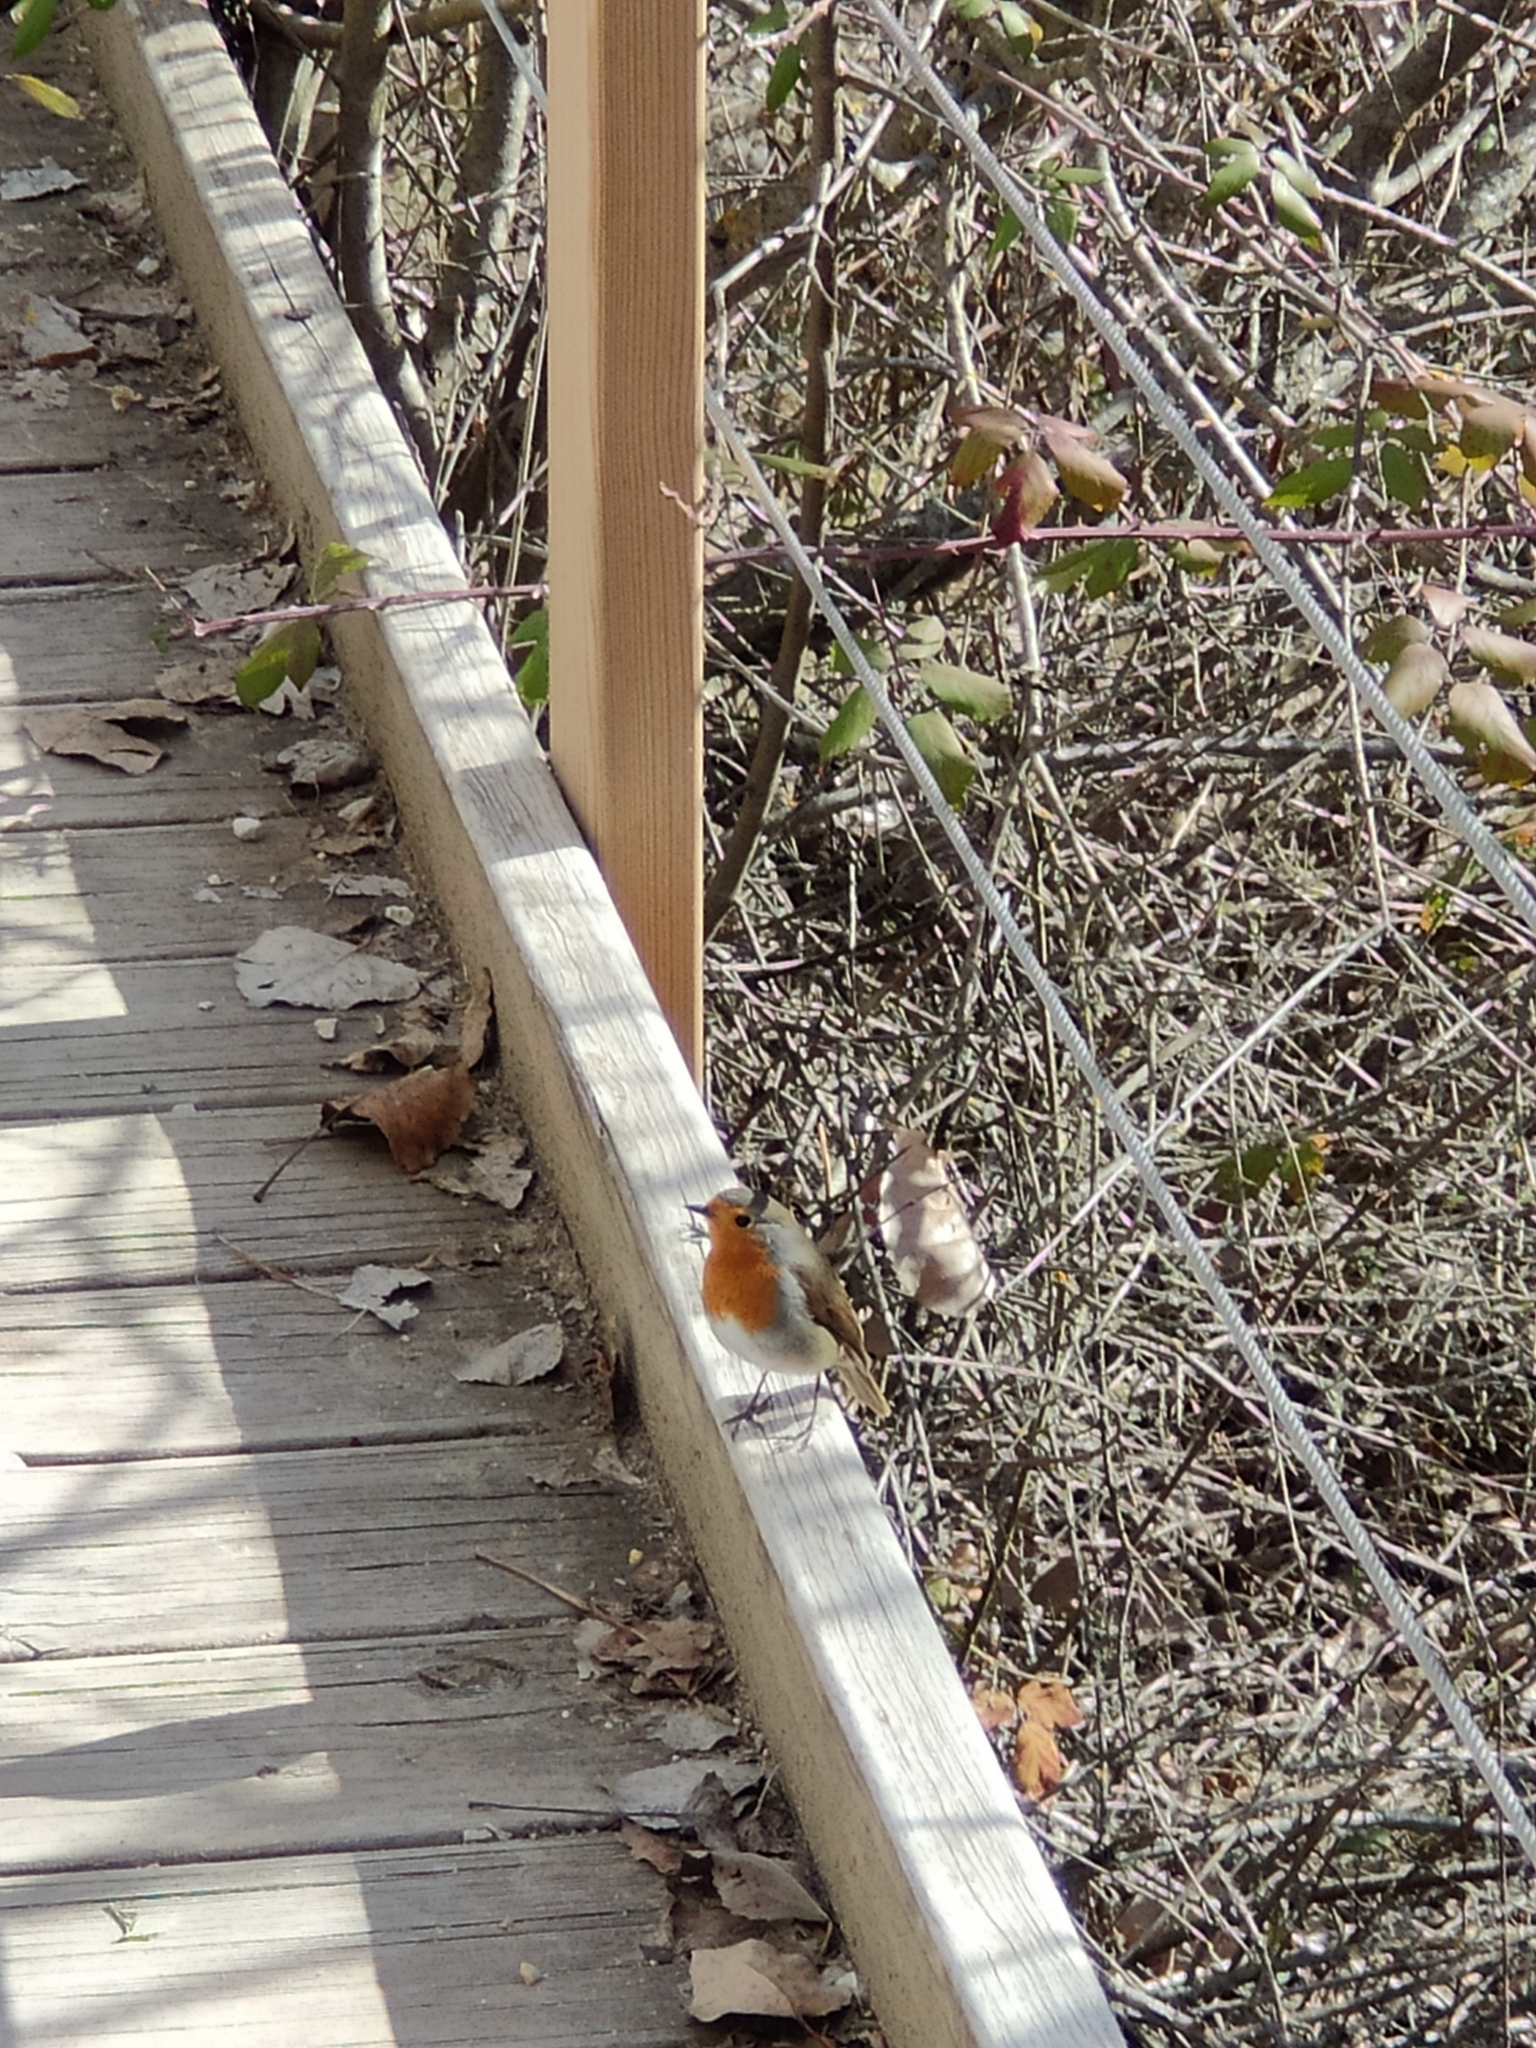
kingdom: Animalia
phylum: Chordata
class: Aves
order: Passeriformes
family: Muscicapidae
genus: Erithacus
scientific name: Erithacus rubecula
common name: European robin
